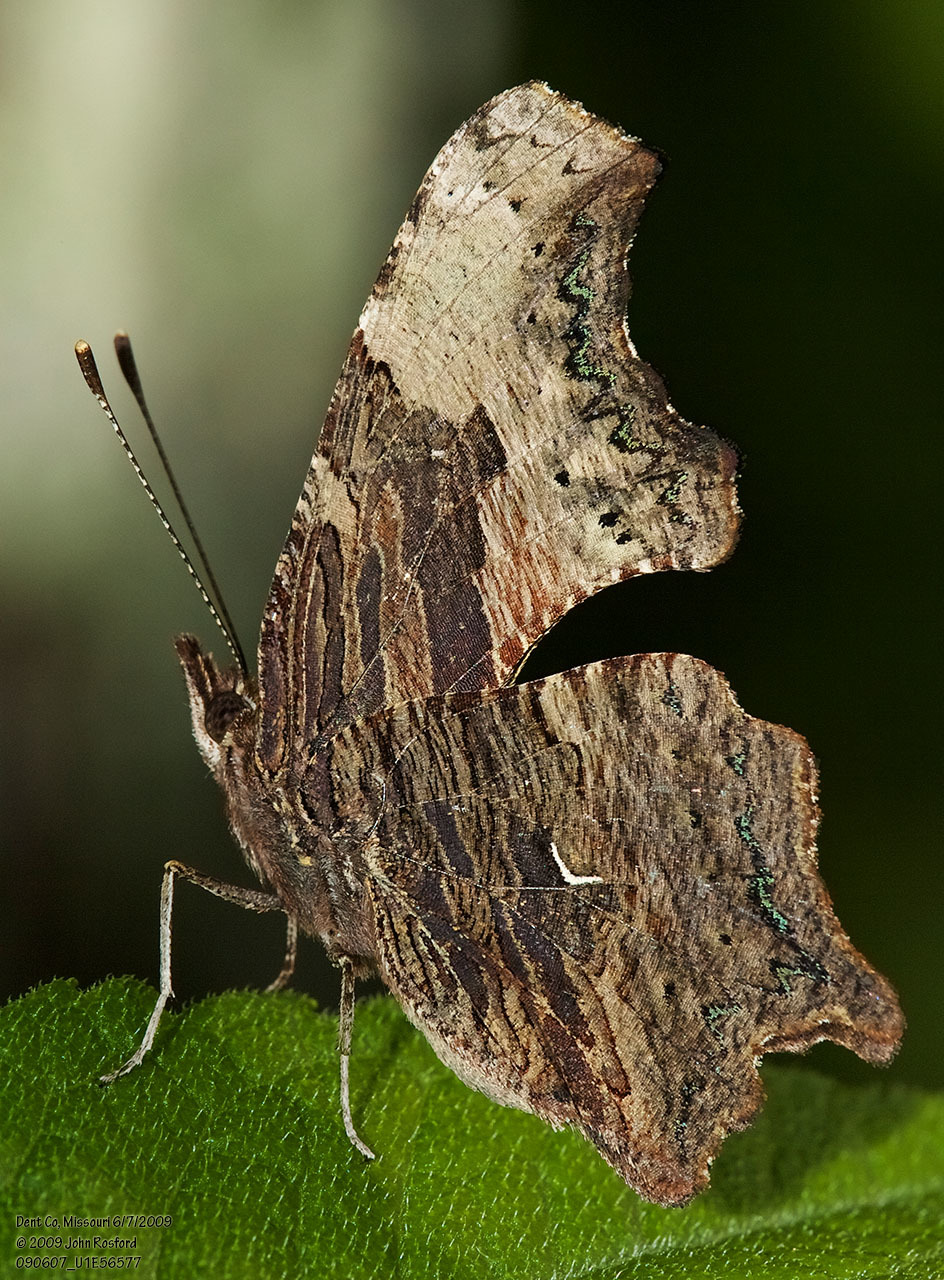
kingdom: Animalia
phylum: Arthropoda
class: Insecta
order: Lepidoptera
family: Nymphalidae
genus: Polygonia
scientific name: Polygonia progne
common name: Gray comma
